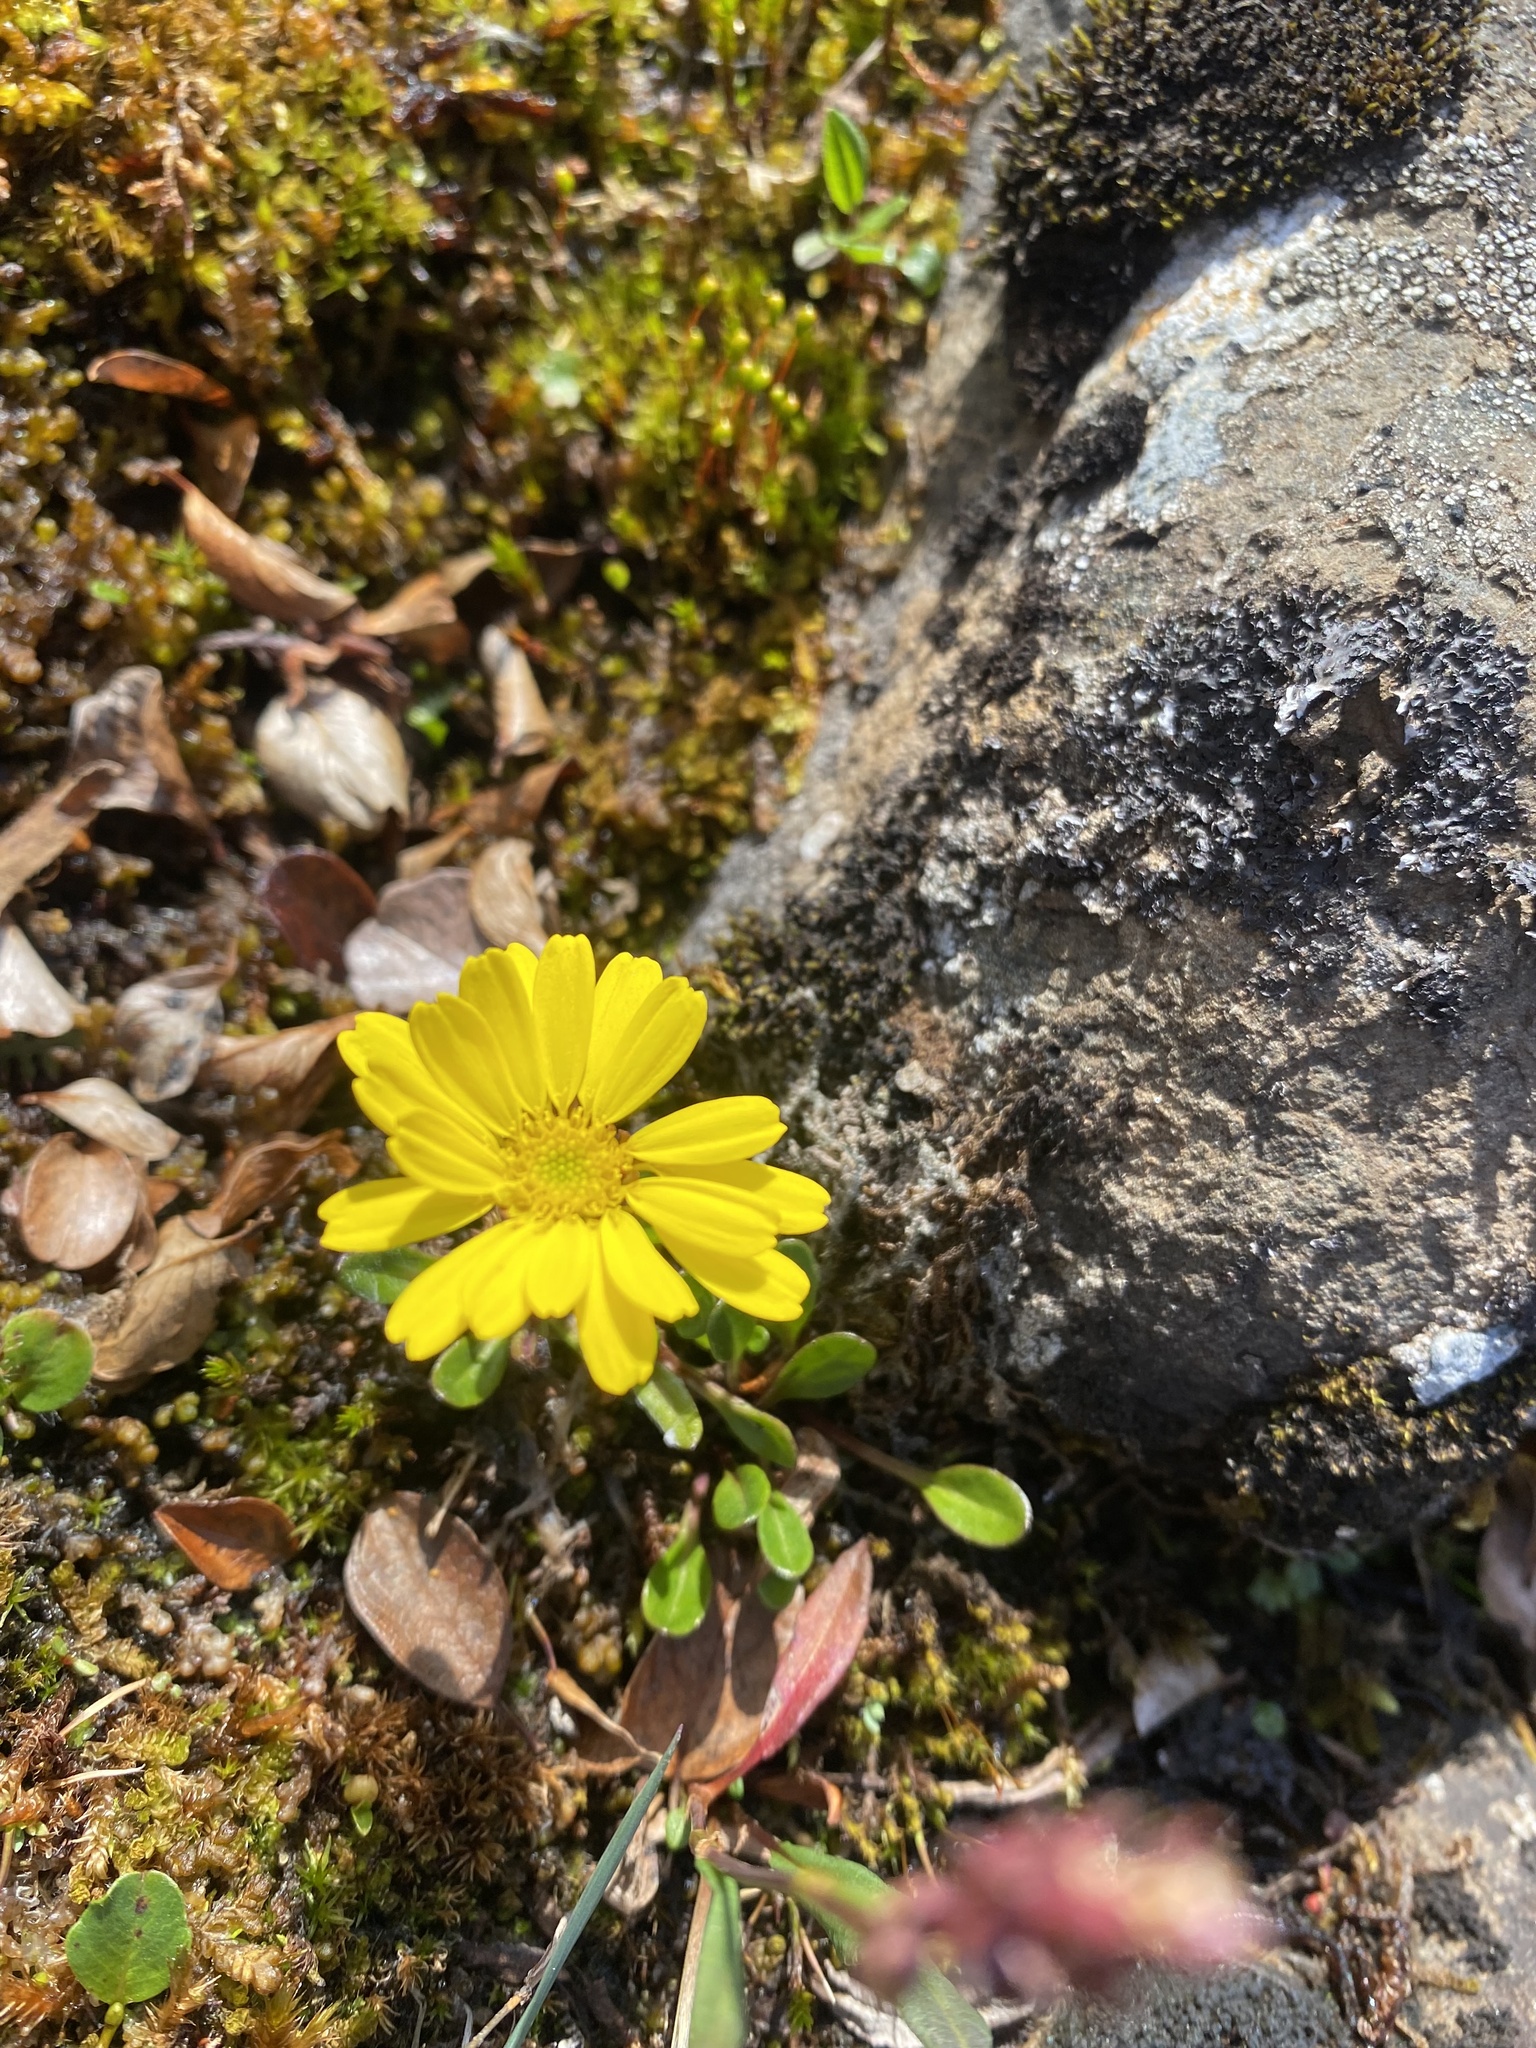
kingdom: Plantae
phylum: Tracheophyta
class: Magnoliopsida
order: Asterales
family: Asteraceae
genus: Tephroseris
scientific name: Tephroseris integrifolia
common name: Field fleawort
